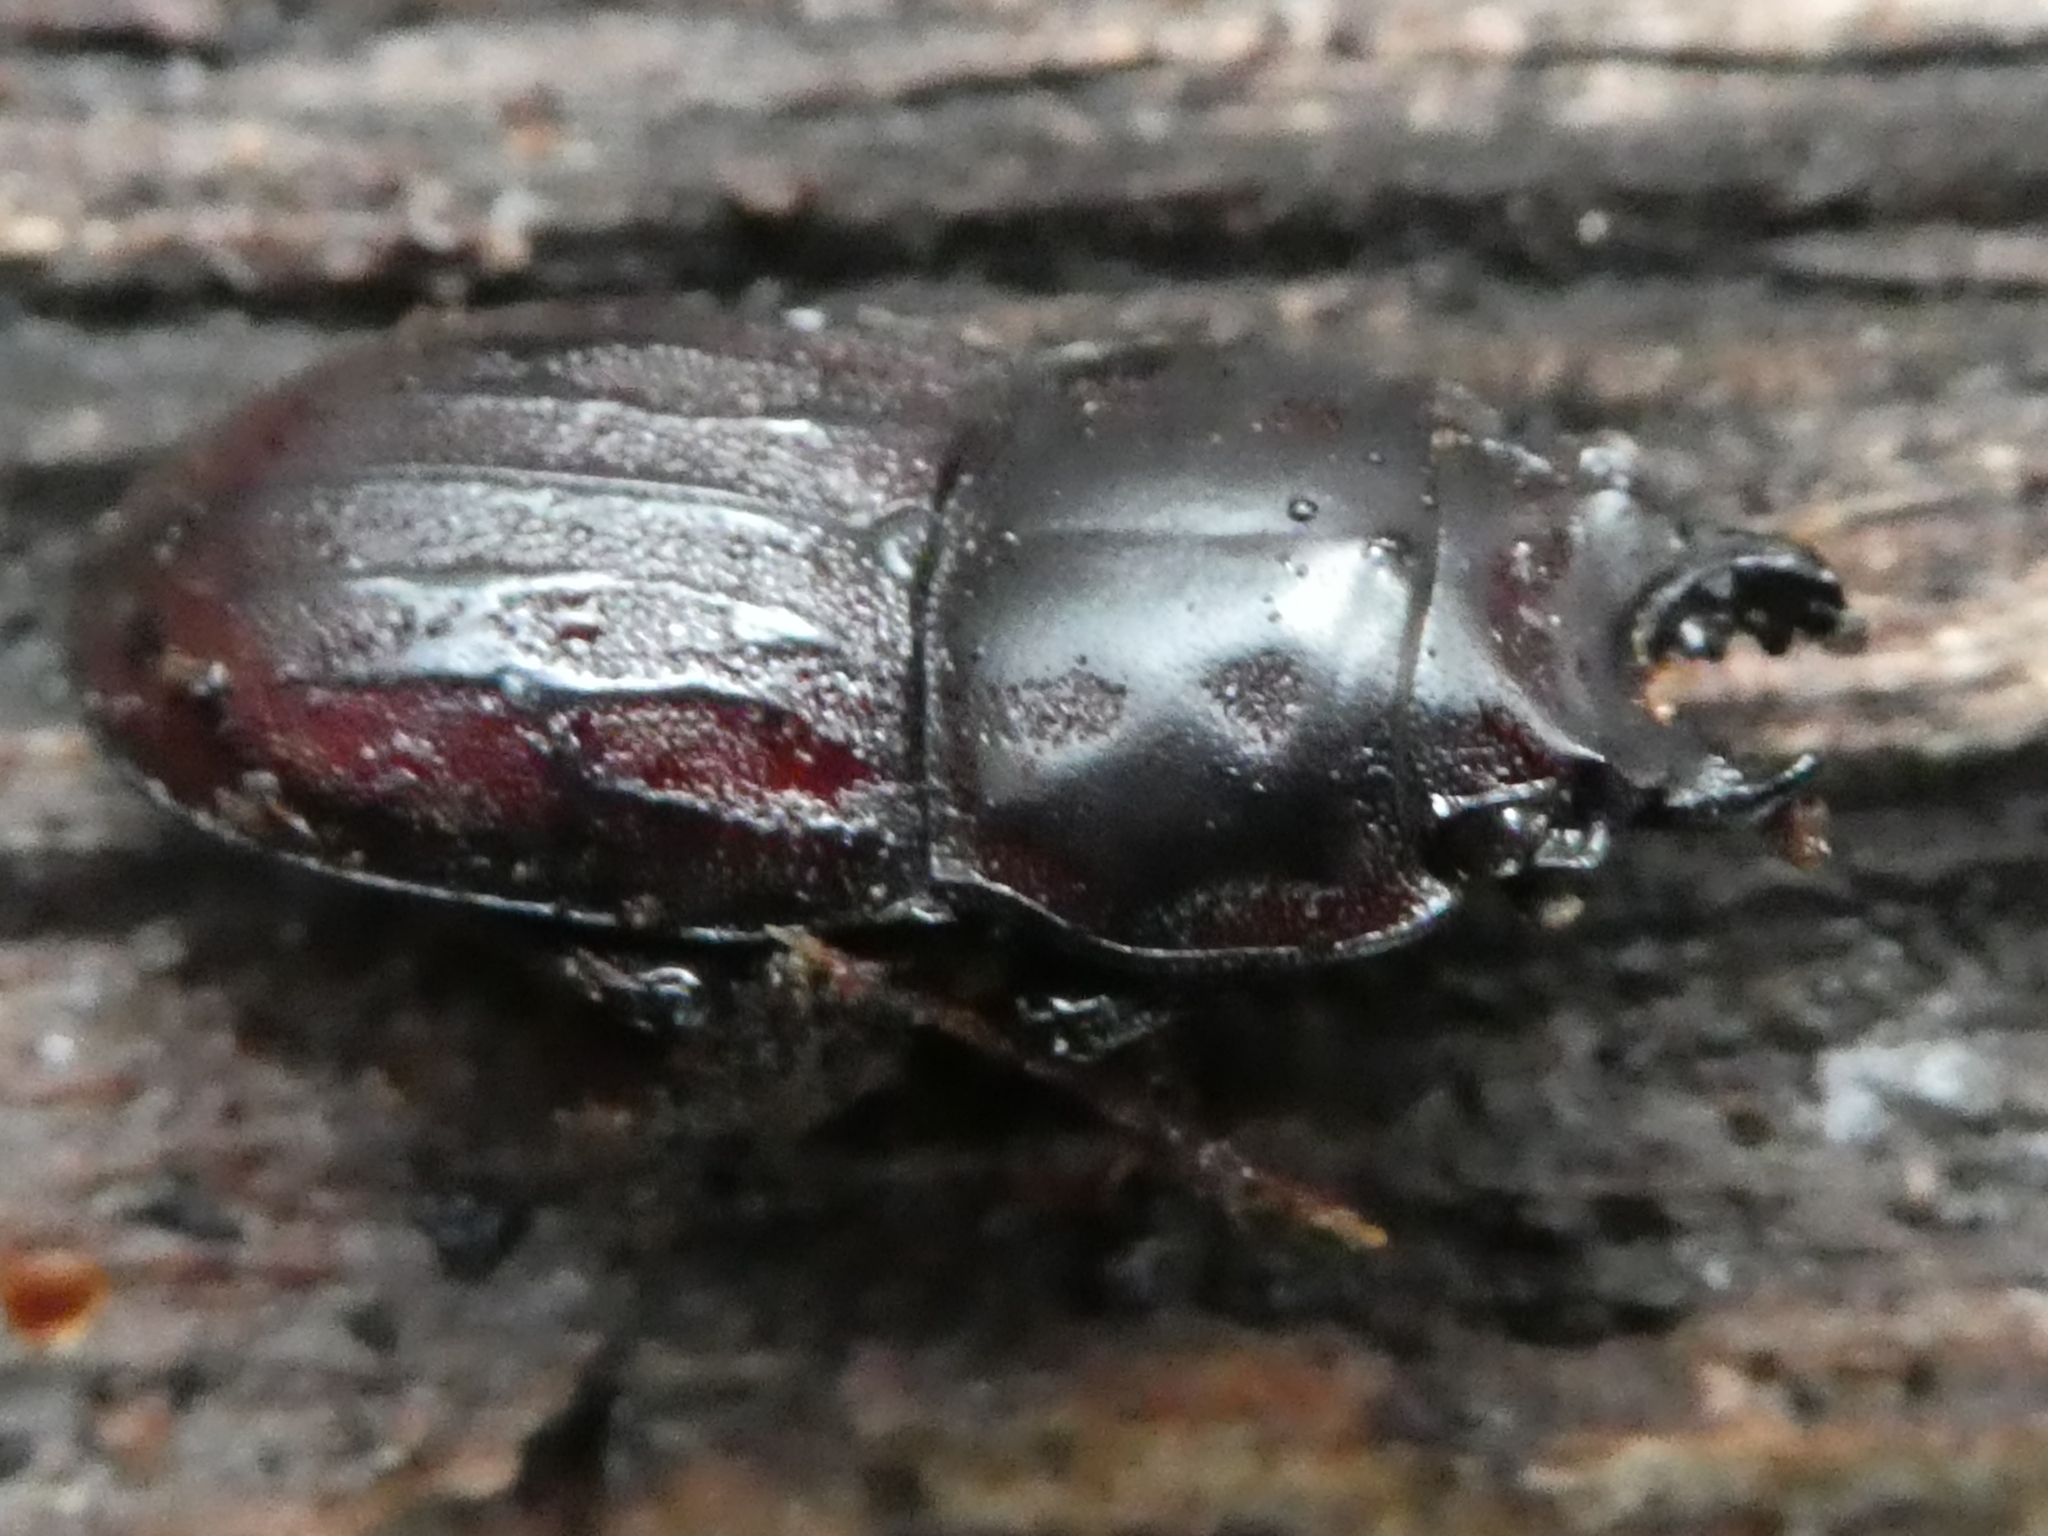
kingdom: Animalia
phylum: Arthropoda
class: Insecta
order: Coleoptera
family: Lucanidae
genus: Paralissotes
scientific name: Paralissotes reticulatus
